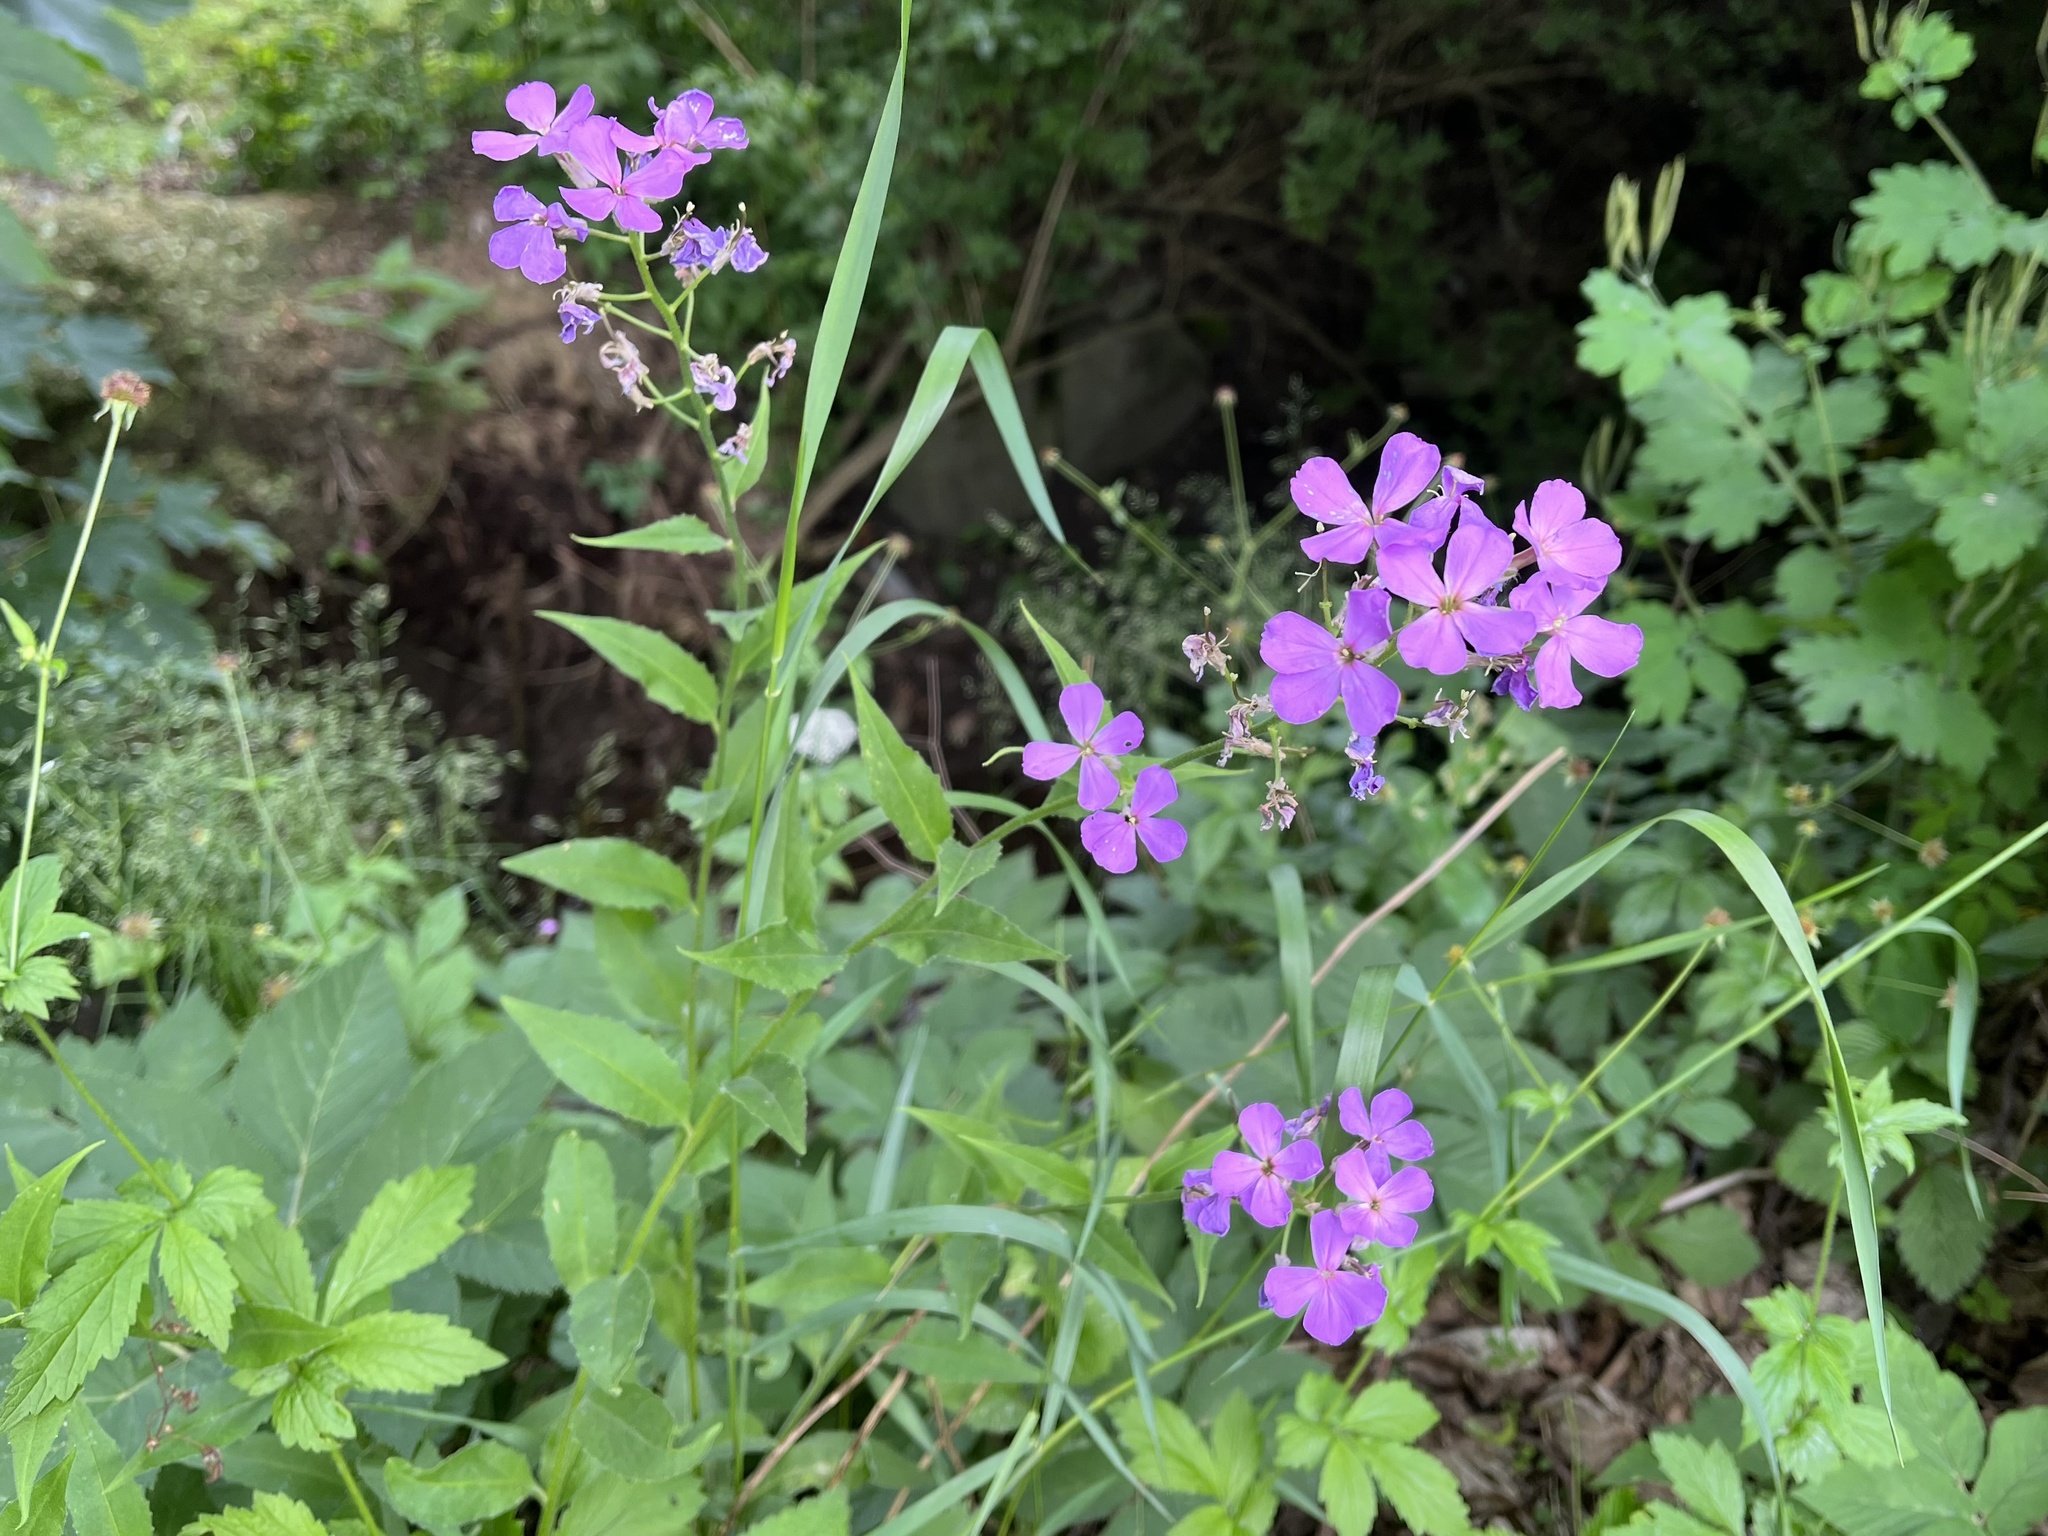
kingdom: Plantae
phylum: Tracheophyta
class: Magnoliopsida
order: Brassicales
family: Brassicaceae
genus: Hesperis
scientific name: Hesperis matronalis
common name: Dame's-violet
